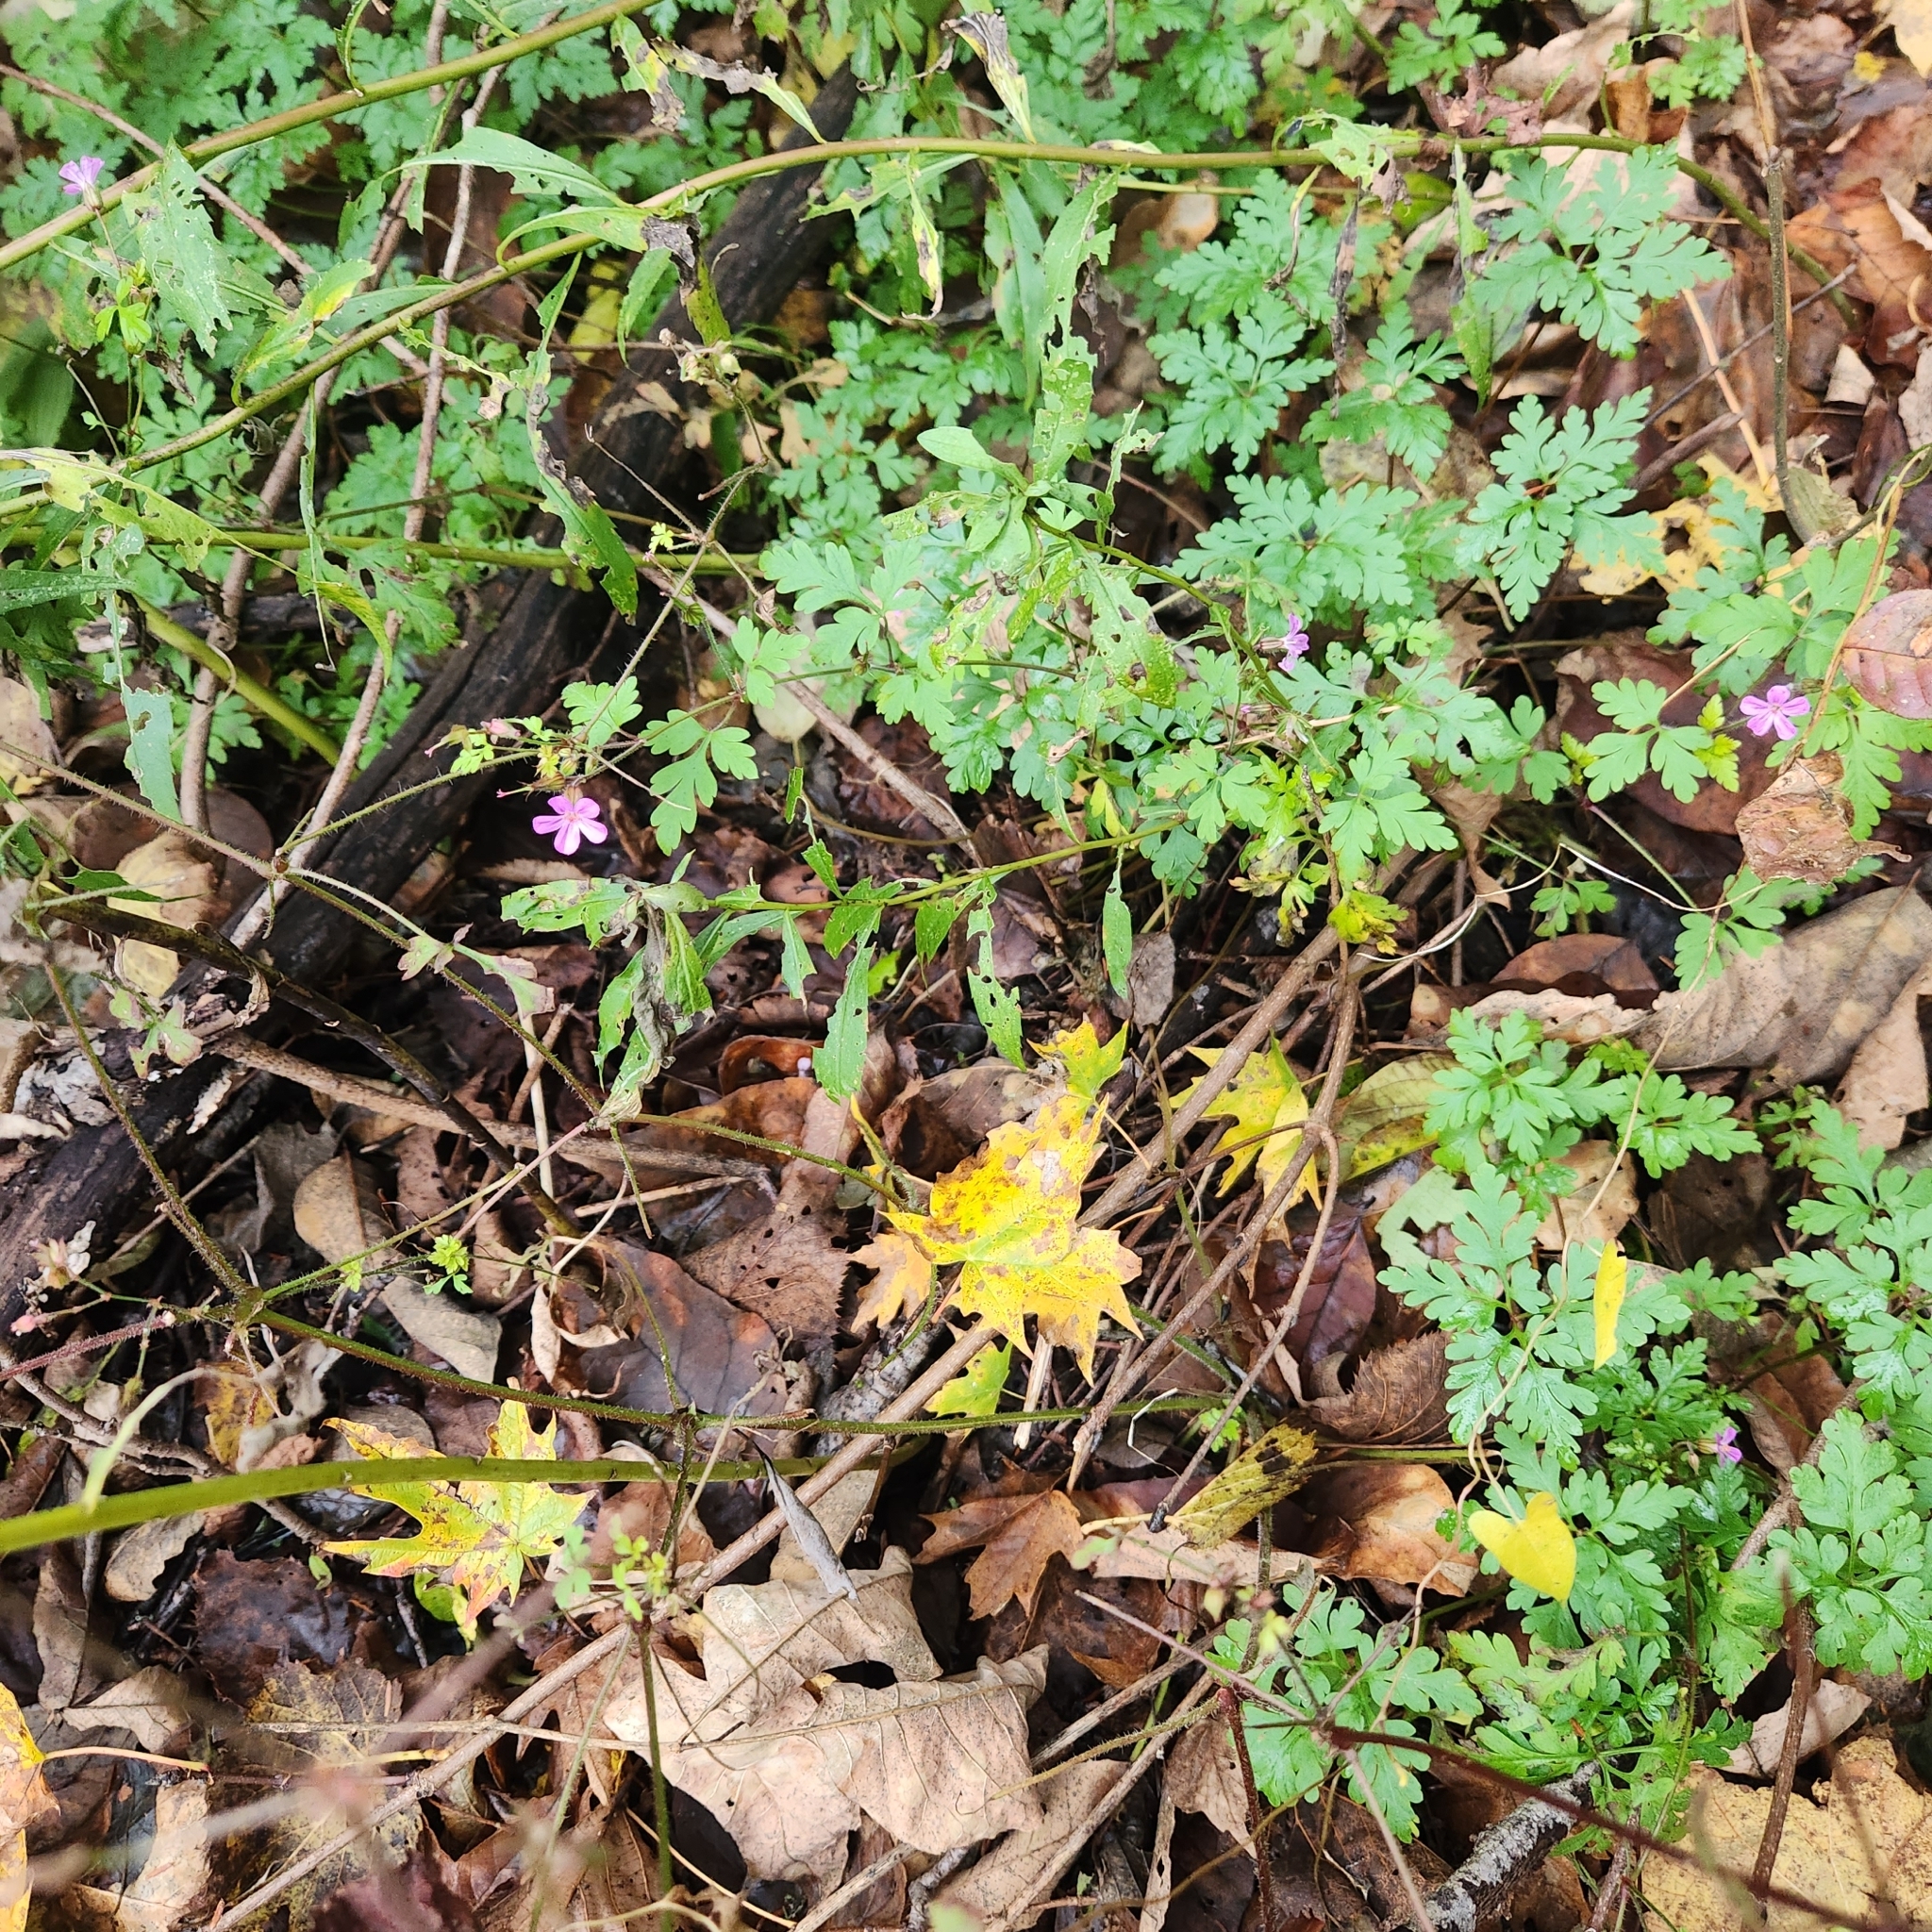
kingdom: Plantae
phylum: Tracheophyta
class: Magnoliopsida
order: Geraniales
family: Geraniaceae
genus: Geranium
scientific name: Geranium robertianum
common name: Herb-robert
